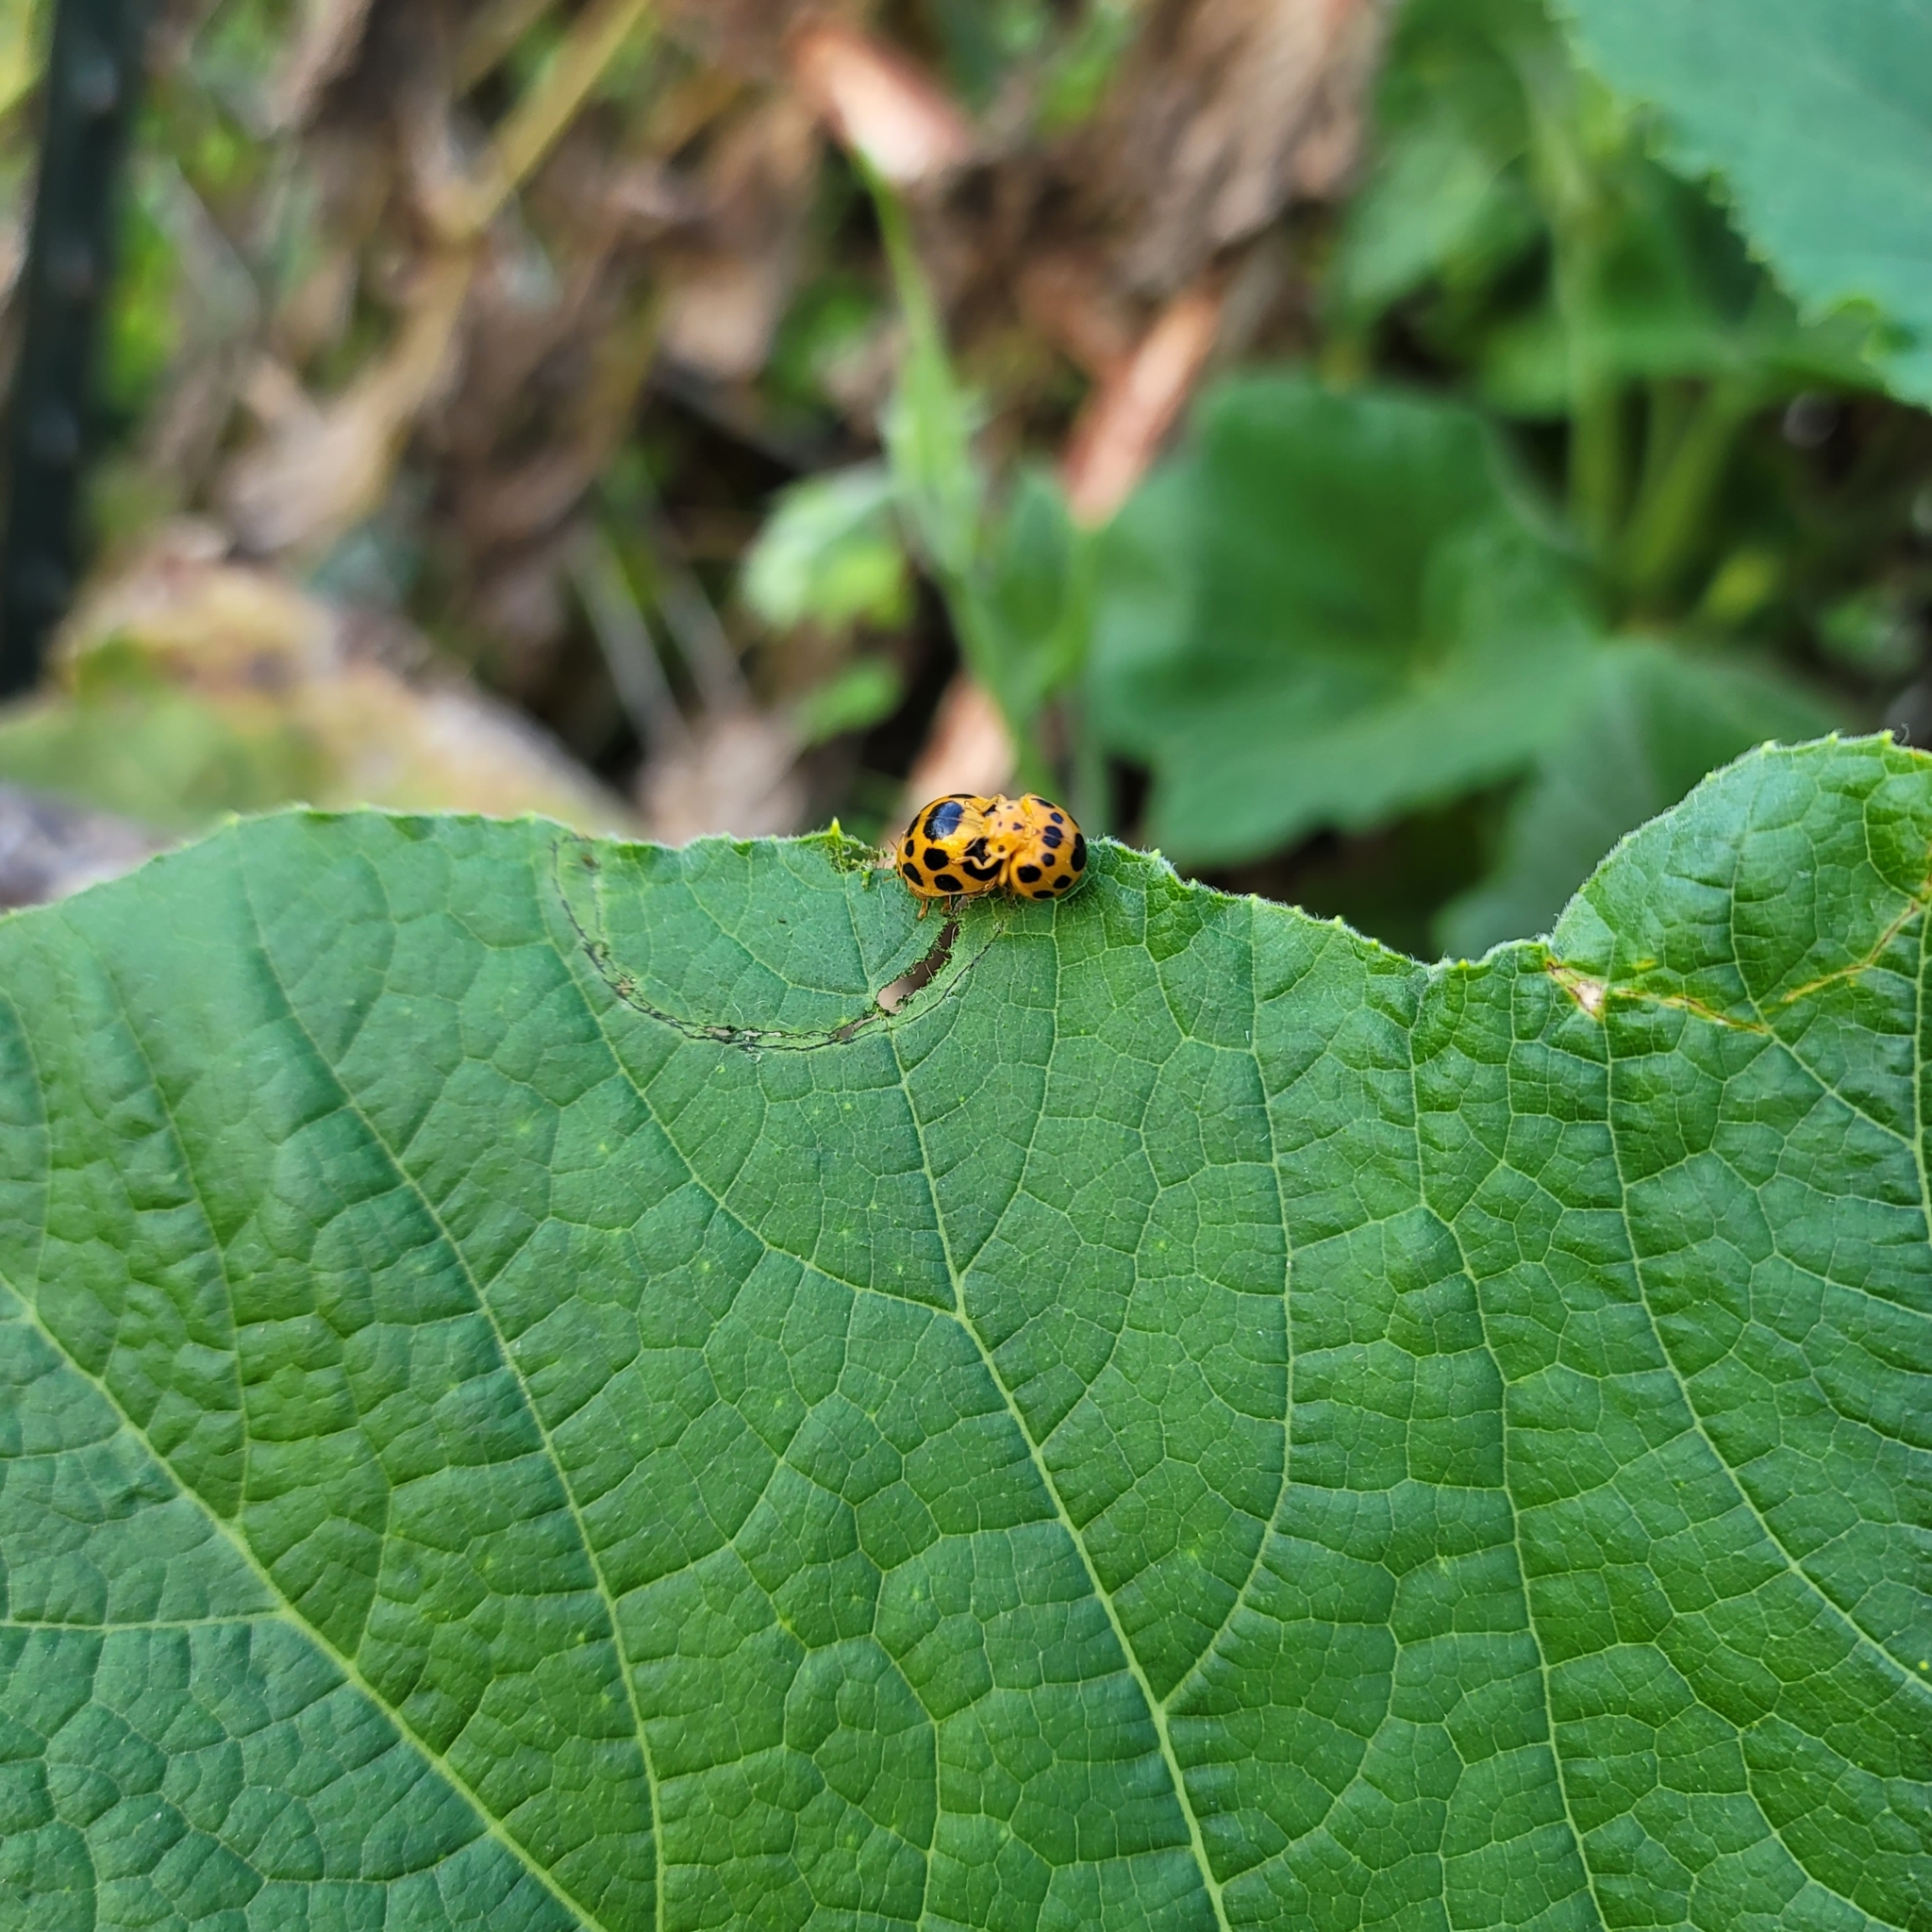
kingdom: Animalia
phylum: Arthropoda
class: Insecta
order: Coleoptera
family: Coccinellidae
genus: Epilachna
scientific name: Epilachna borealis
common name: Squash beetle
